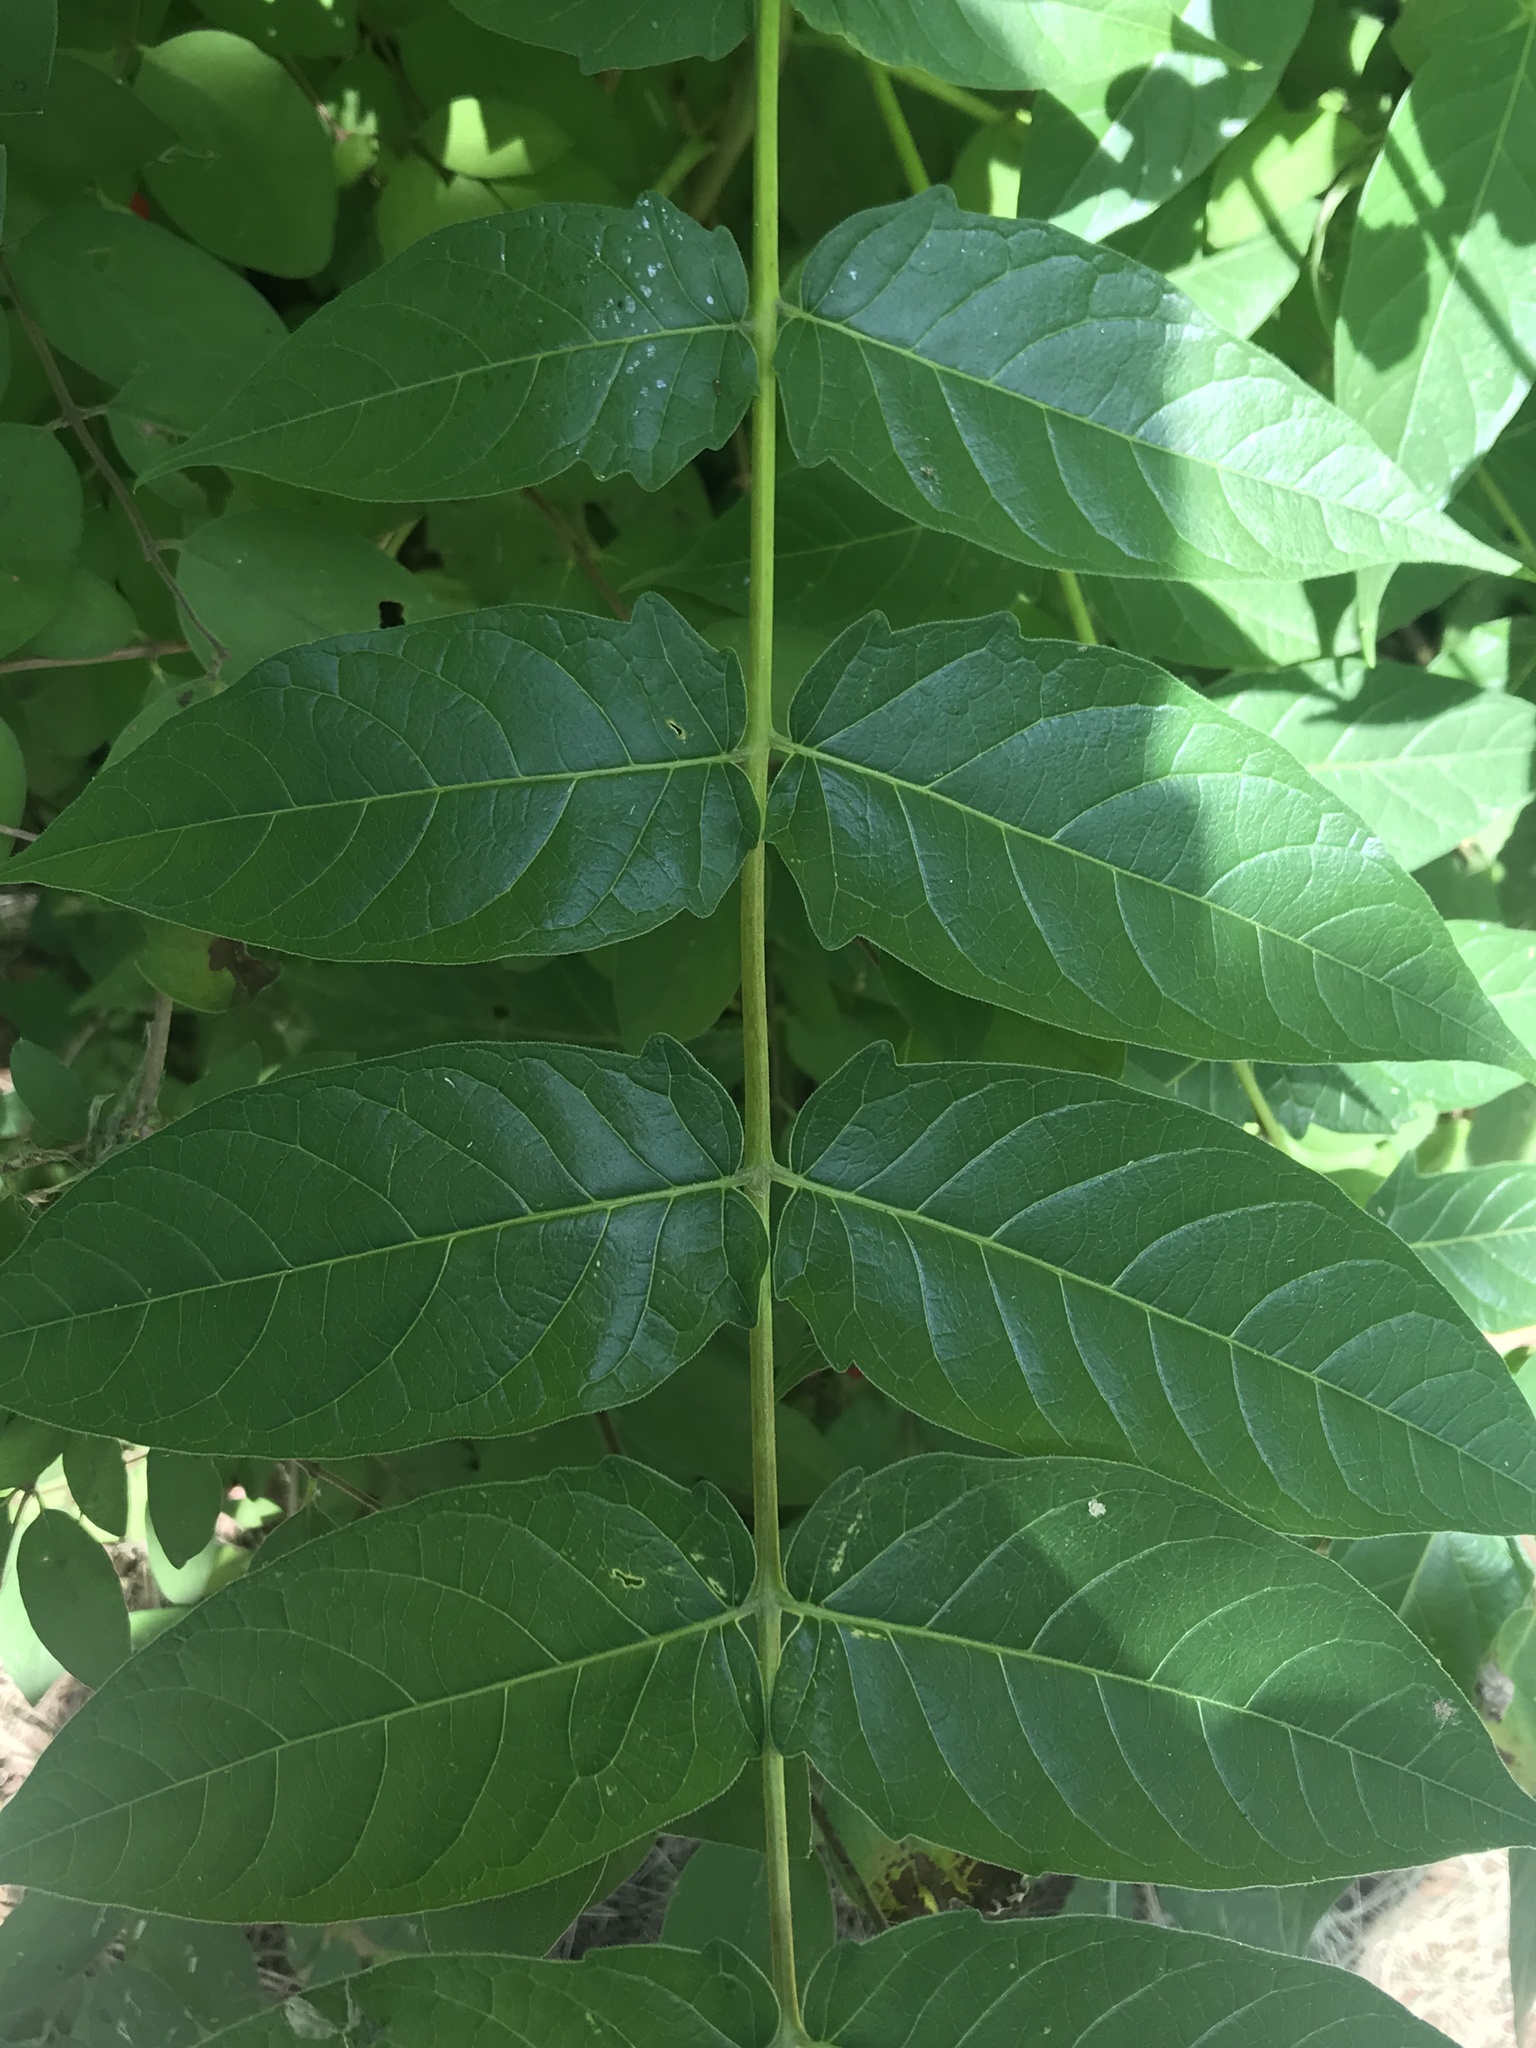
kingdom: Plantae
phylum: Tracheophyta
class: Magnoliopsida
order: Sapindales
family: Simaroubaceae
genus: Ailanthus
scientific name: Ailanthus altissima
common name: Tree-of-heaven
